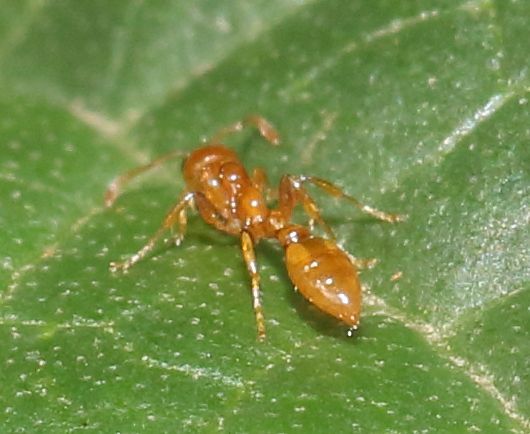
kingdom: Animalia
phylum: Arthropoda
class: Insecta
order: Hymenoptera
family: Formicidae
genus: Tetraponera
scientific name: Tetraponera emeryi
